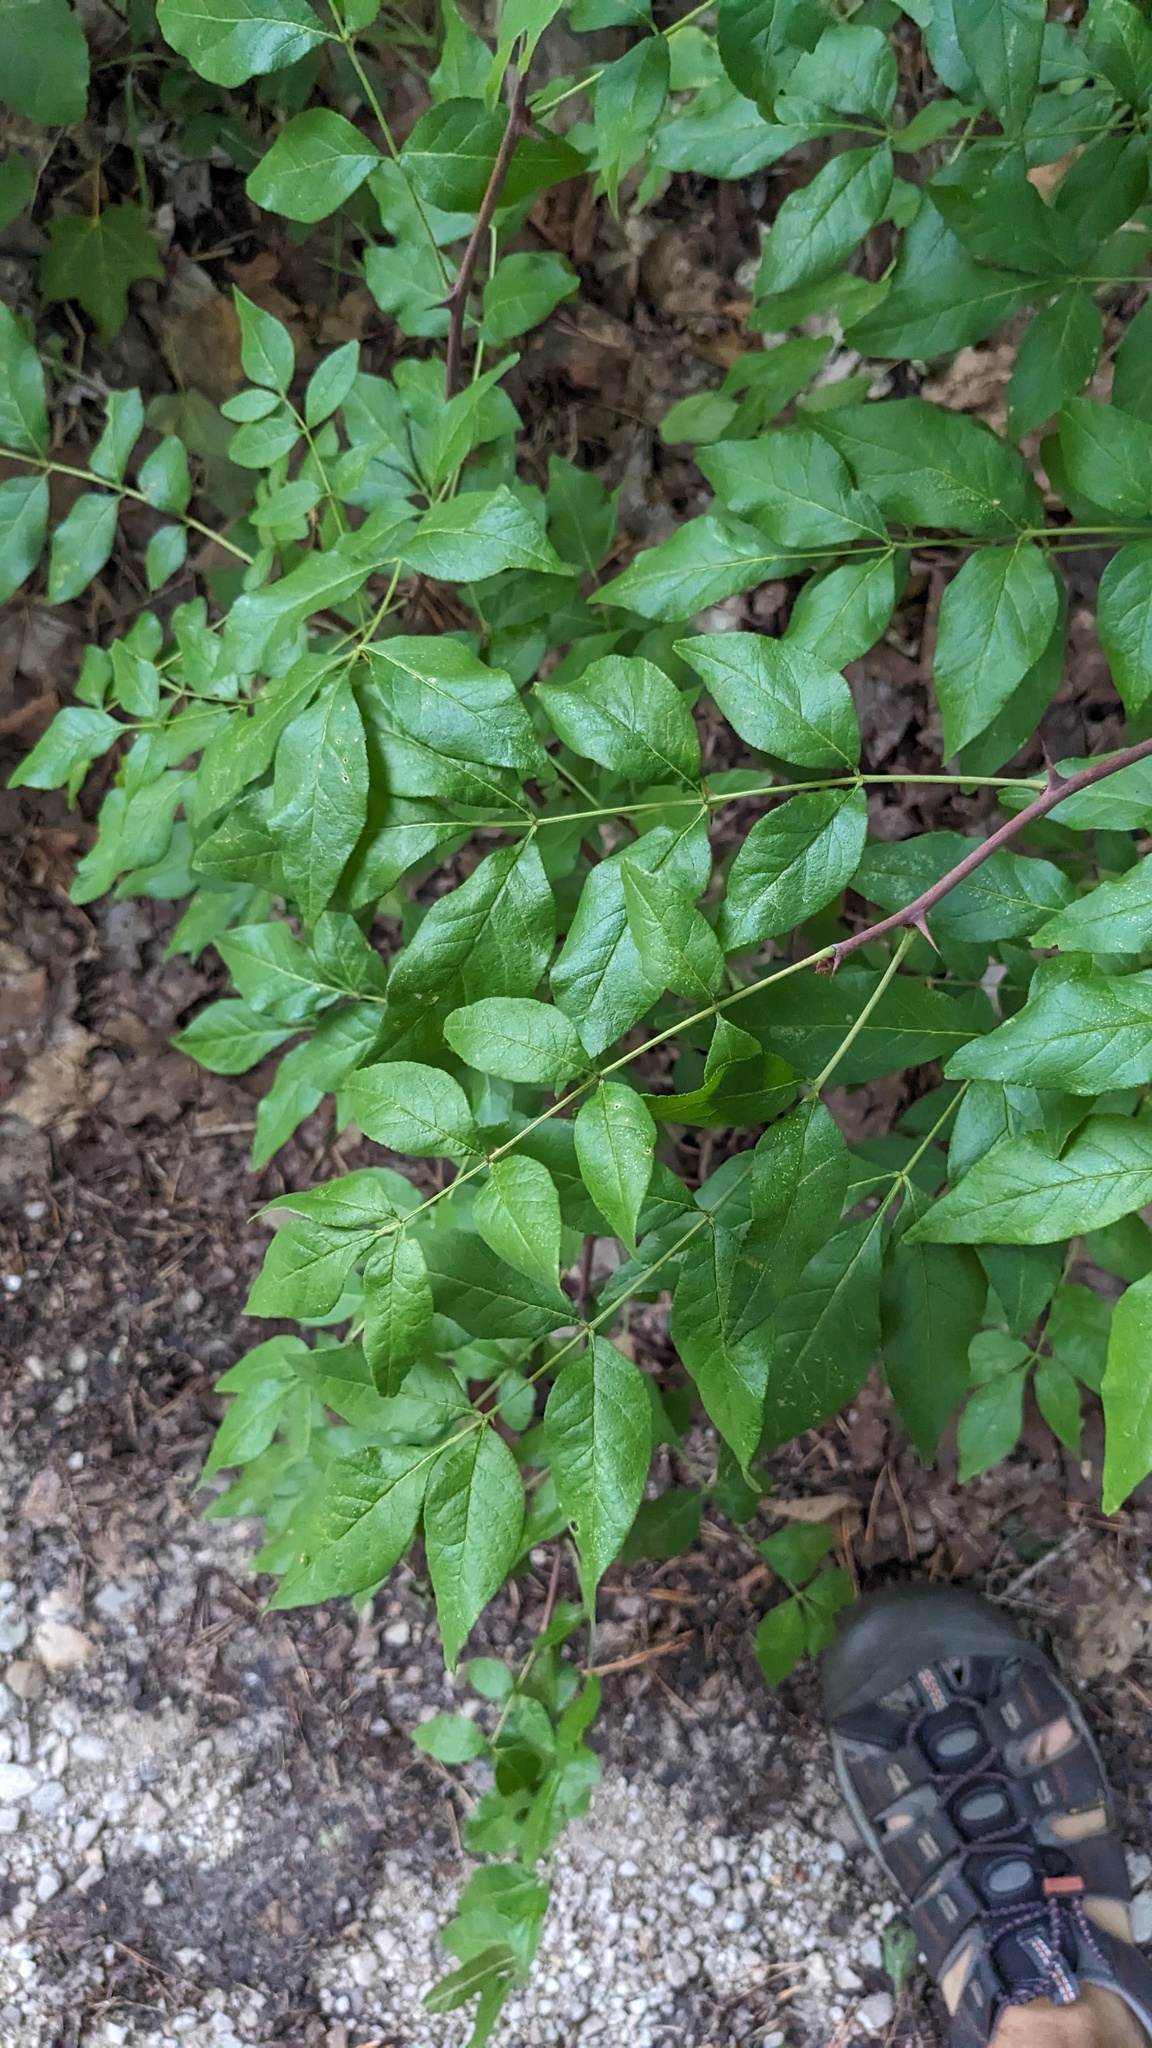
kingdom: Plantae
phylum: Tracheophyta
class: Magnoliopsida
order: Sapindales
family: Rutaceae
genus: Zanthoxylum
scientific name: Zanthoxylum americanum
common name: Northern prickly-ash
